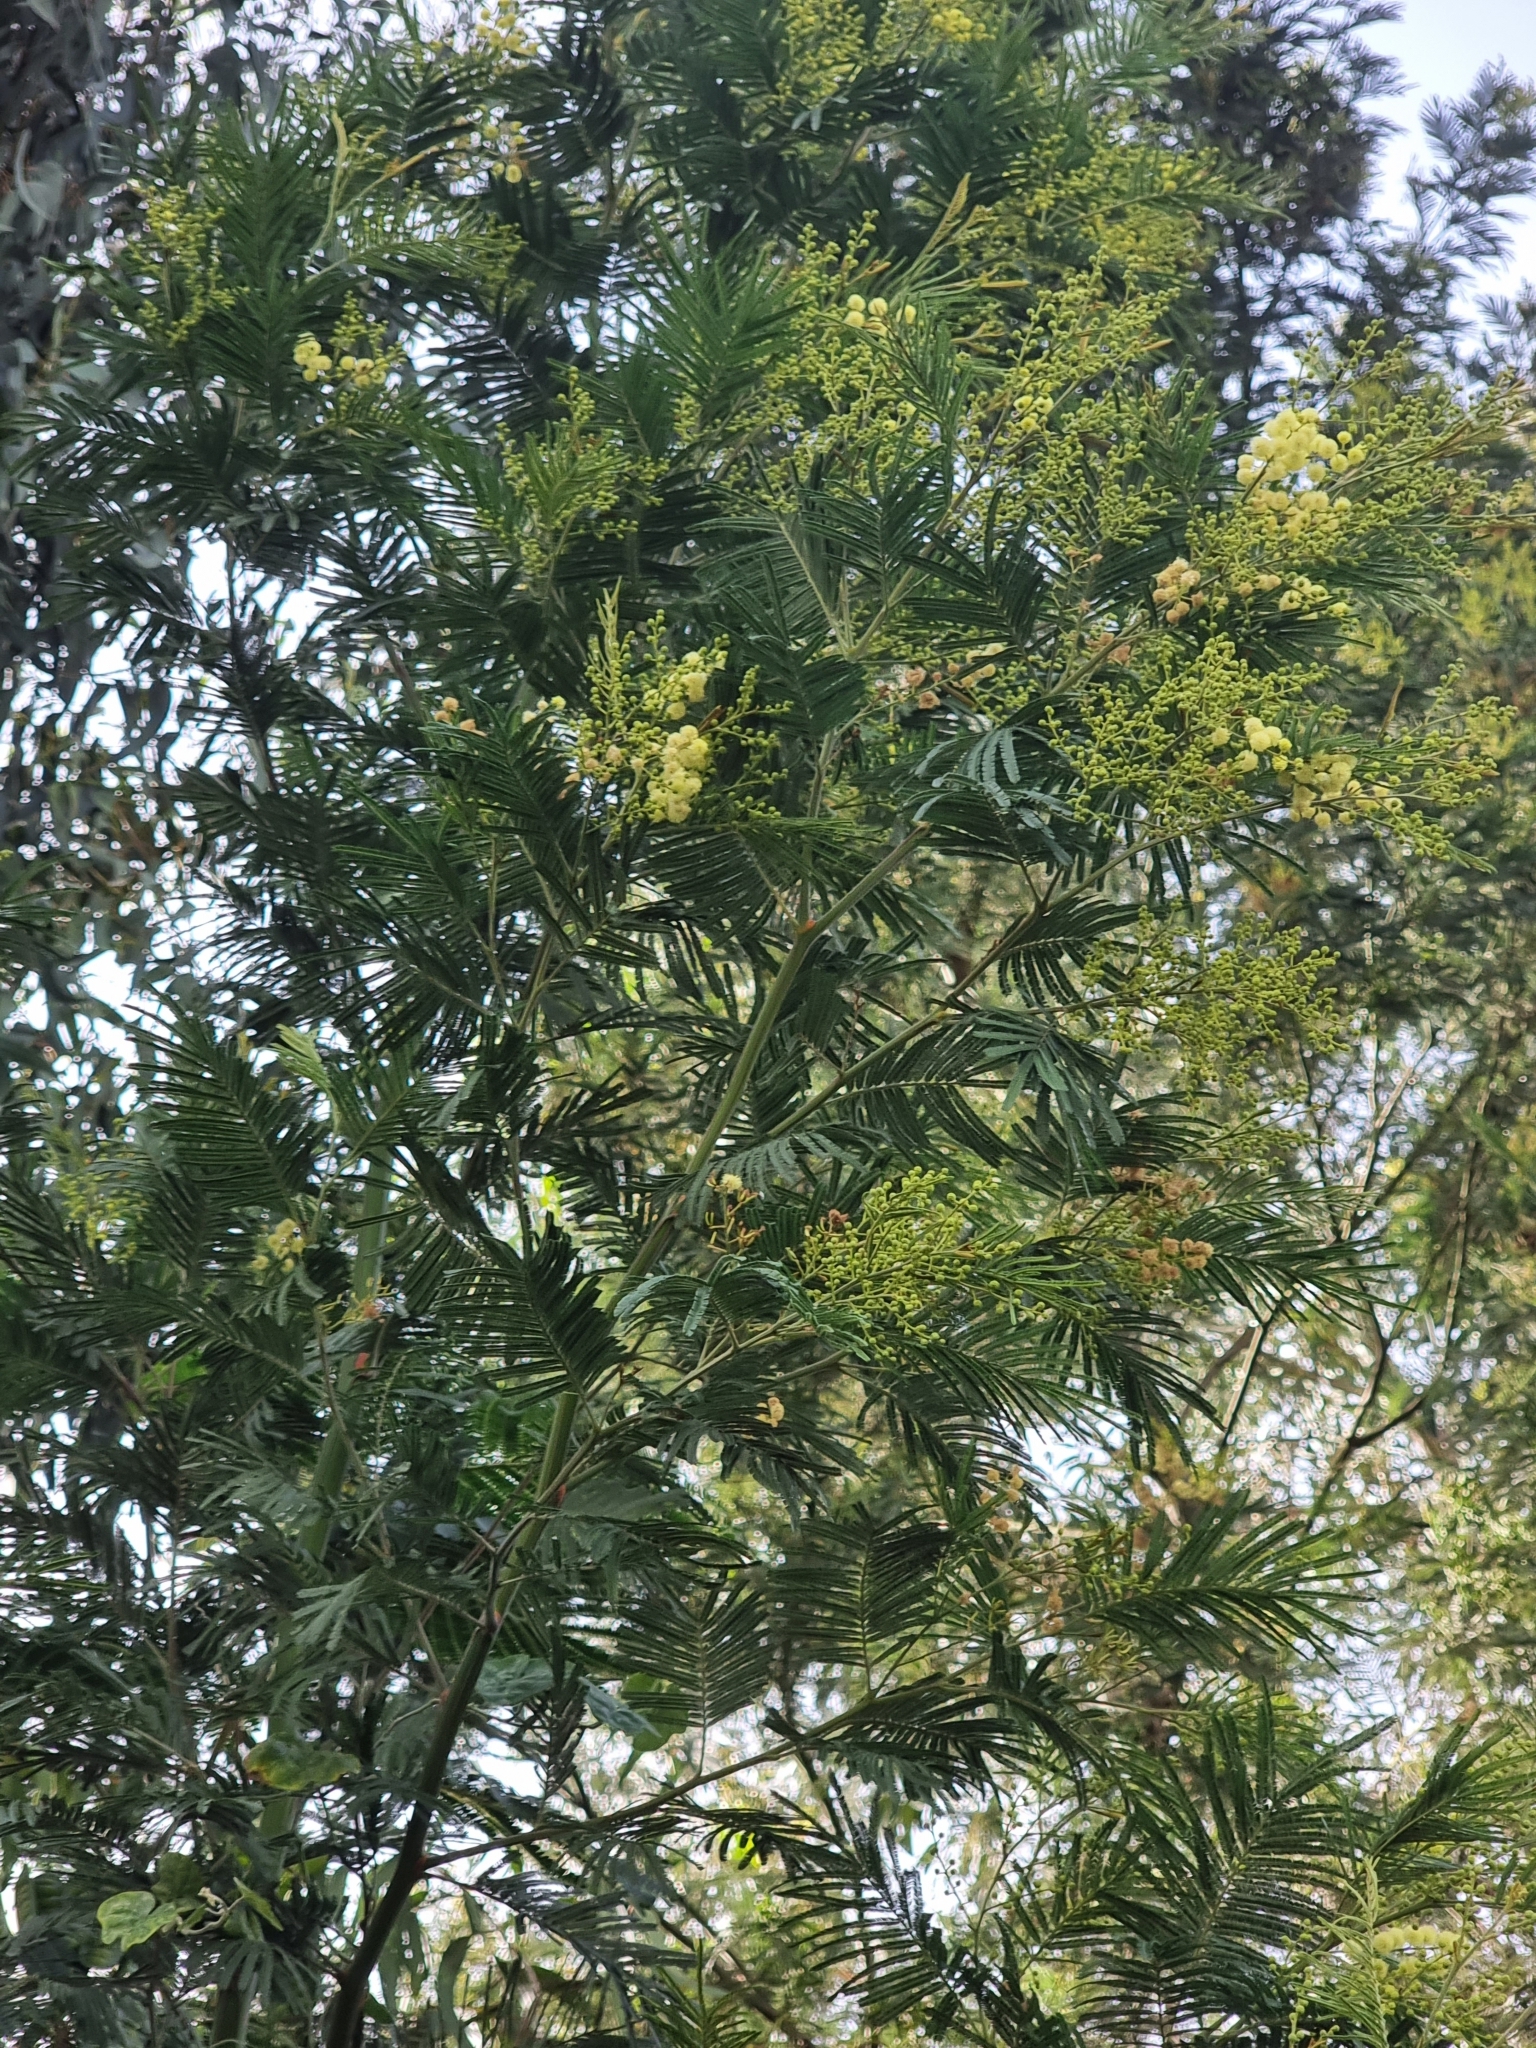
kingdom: Plantae
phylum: Tracheophyta
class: Magnoliopsida
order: Fabales
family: Fabaceae
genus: Acacia
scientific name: Acacia mearnsii
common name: Black wattle
